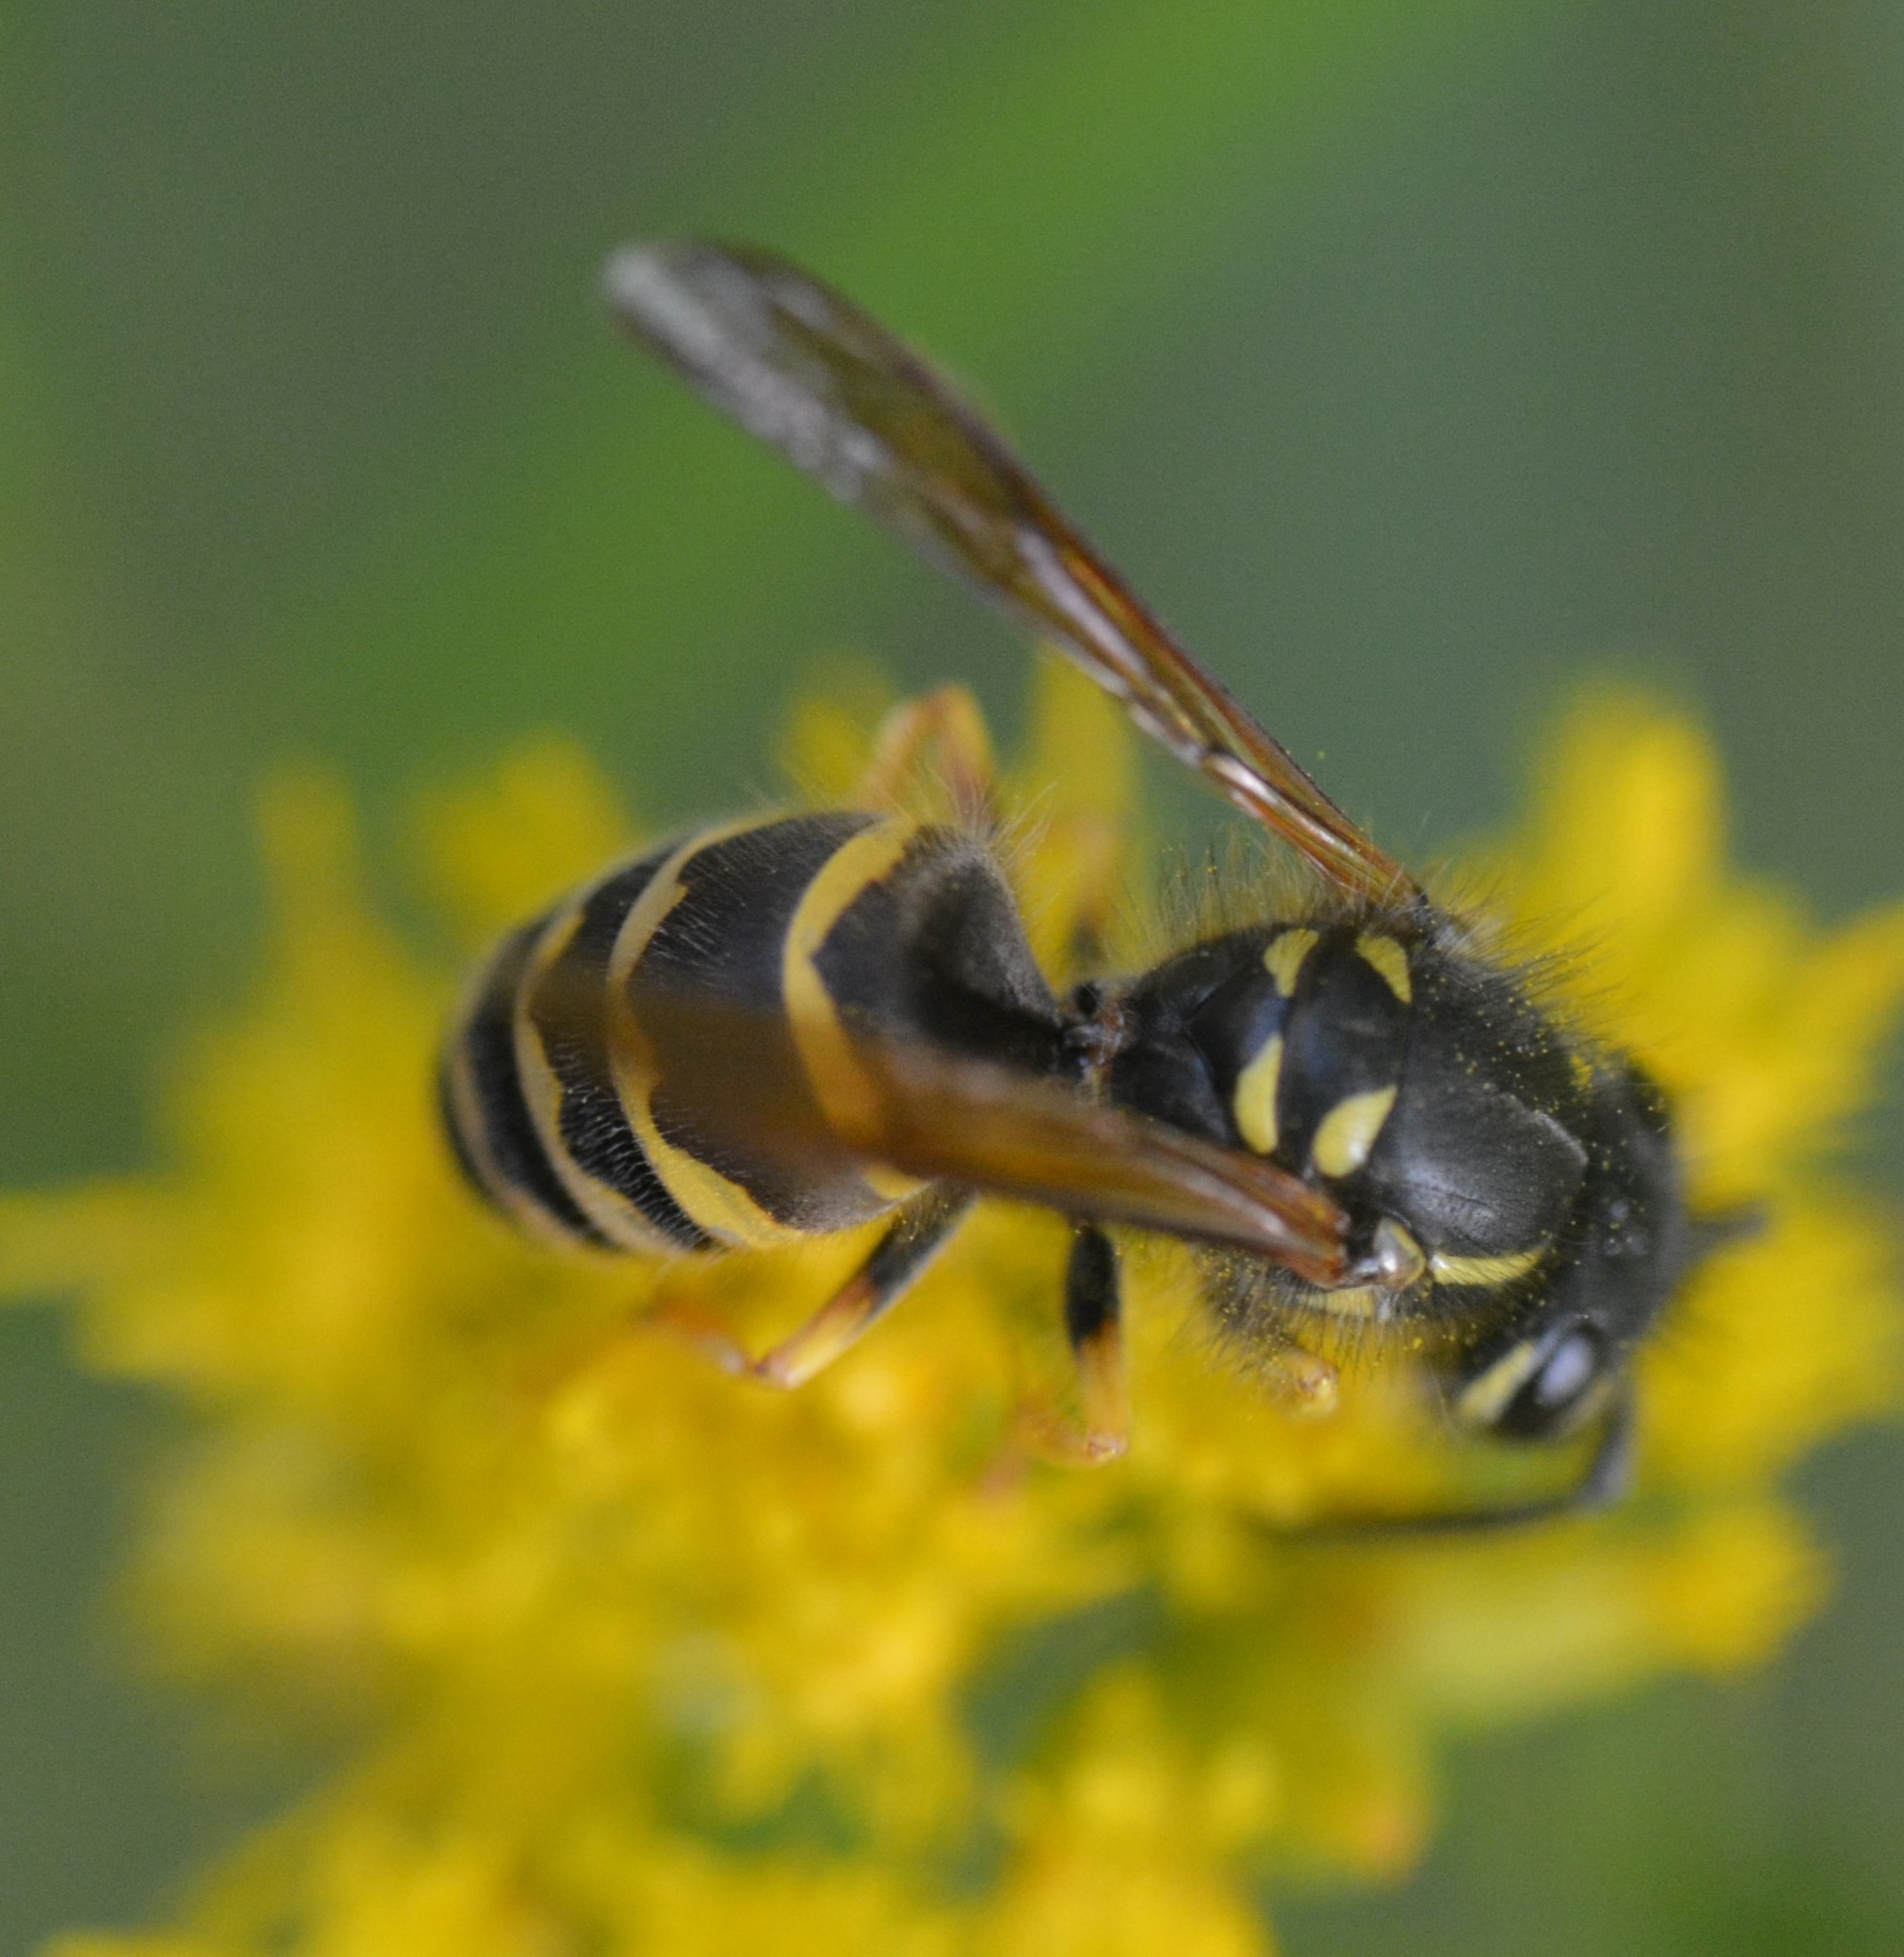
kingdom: Animalia
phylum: Arthropoda
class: Insecta
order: Hymenoptera
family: Vespidae
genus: Vespula
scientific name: Vespula alascensis
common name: Alaska yellowjacket
